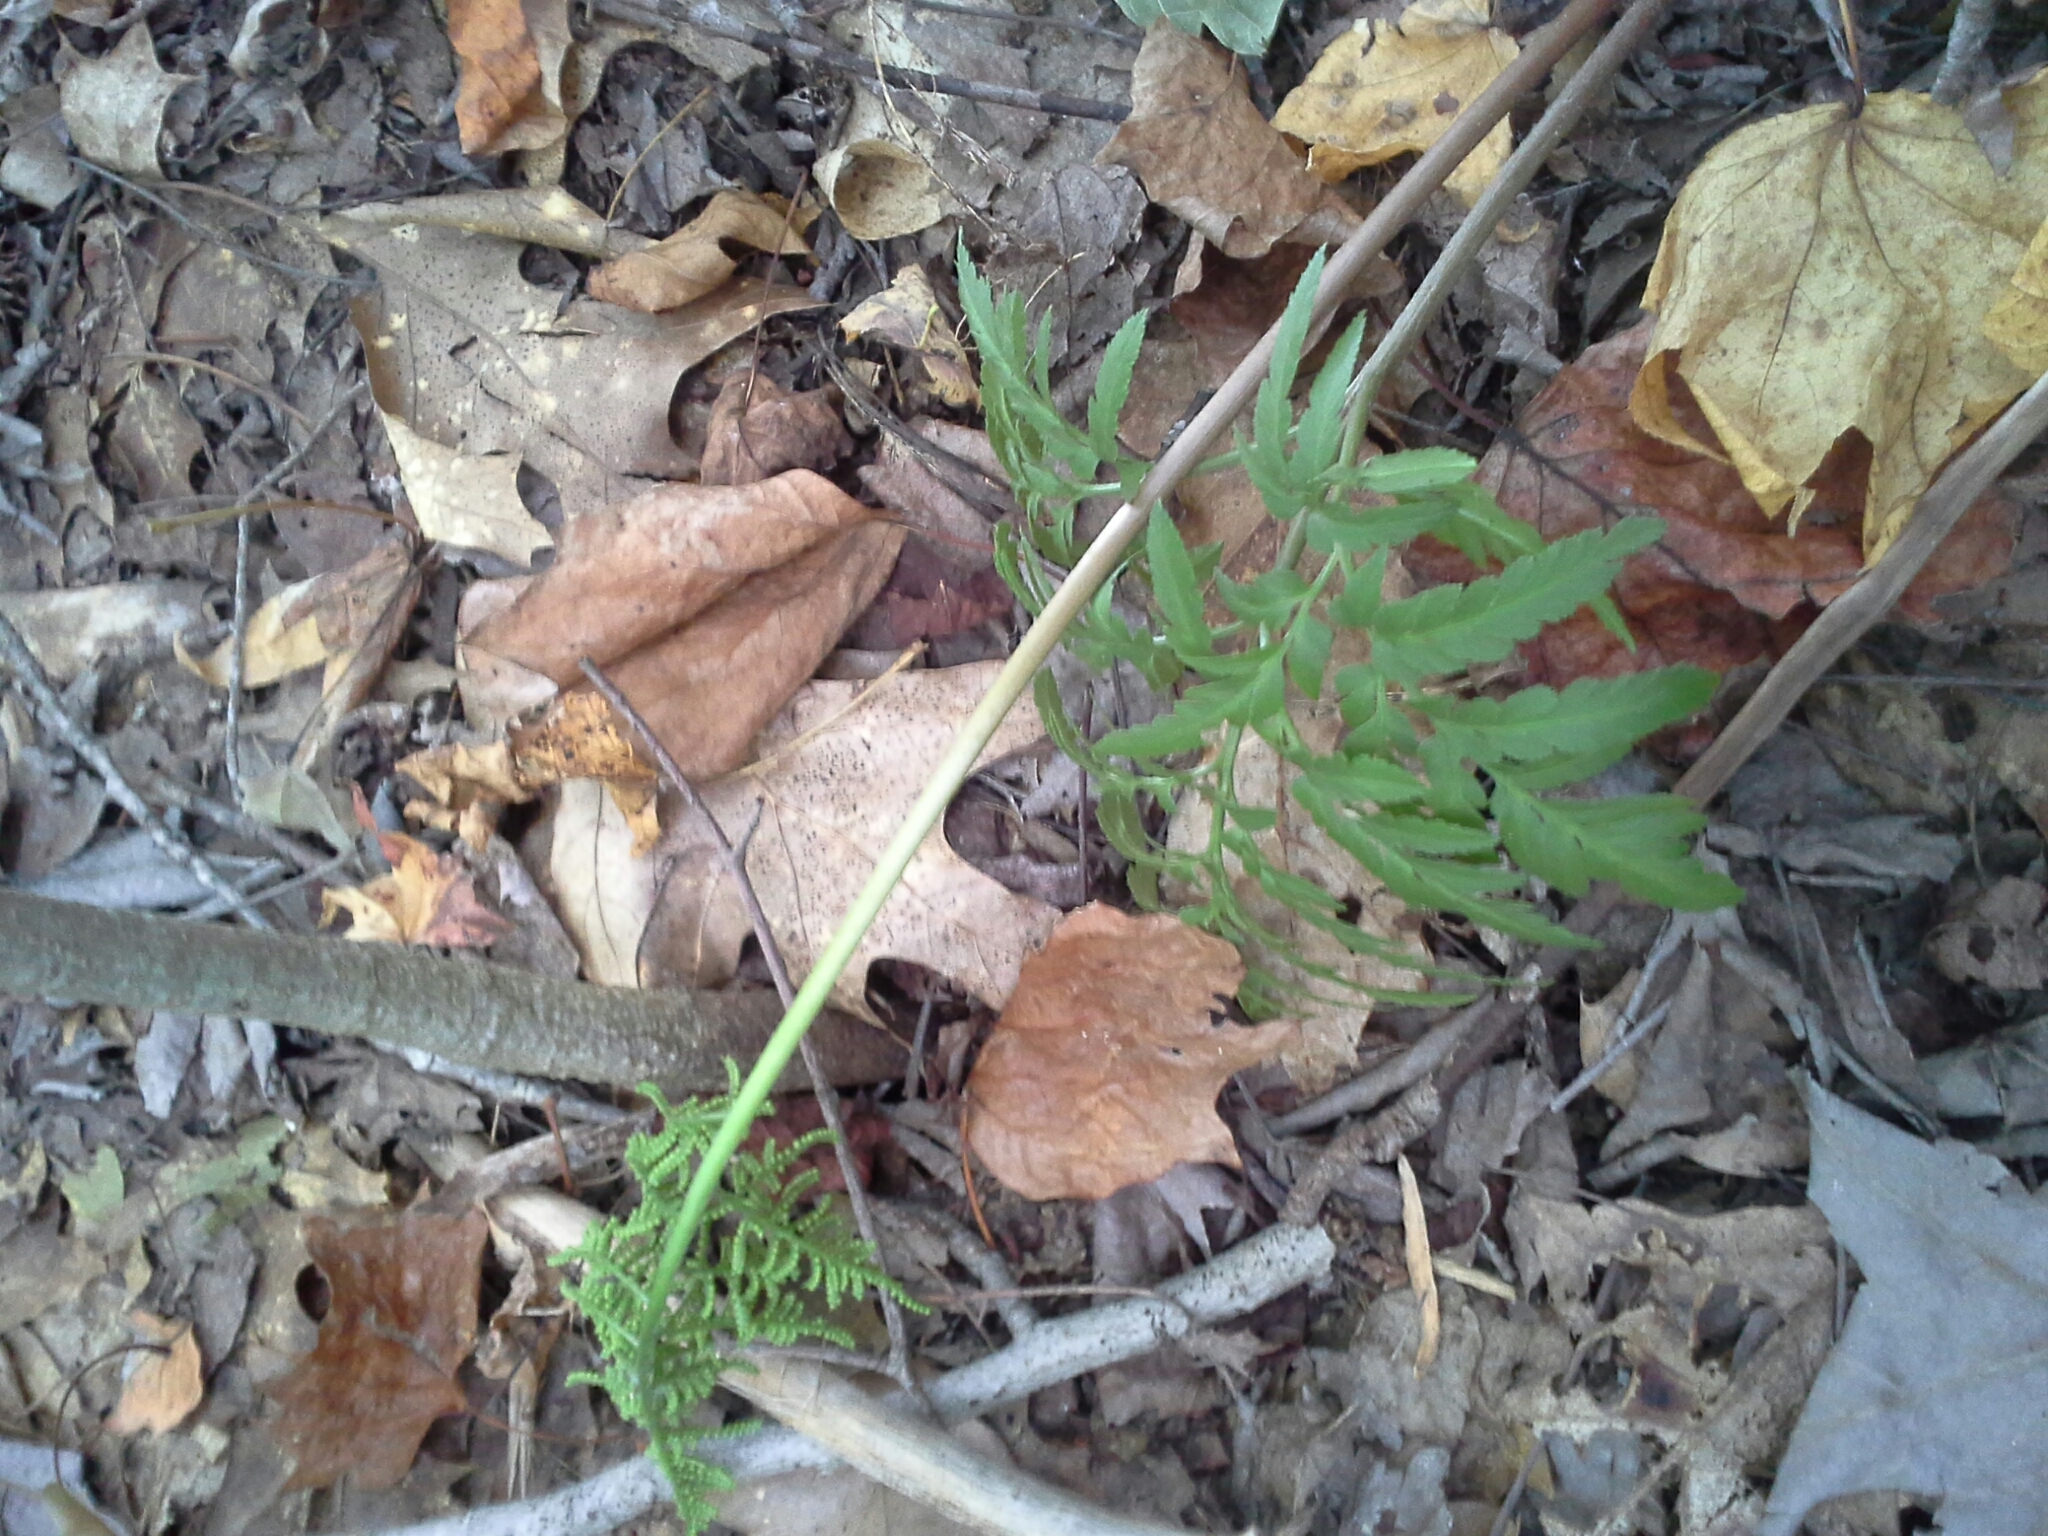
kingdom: Plantae
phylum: Tracheophyta
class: Polypodiopsida
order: Ophioglossales
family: Ophioglossaceae
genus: Sceptridium
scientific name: Sceptridium dissectum
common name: Cut-leaved grapefern
